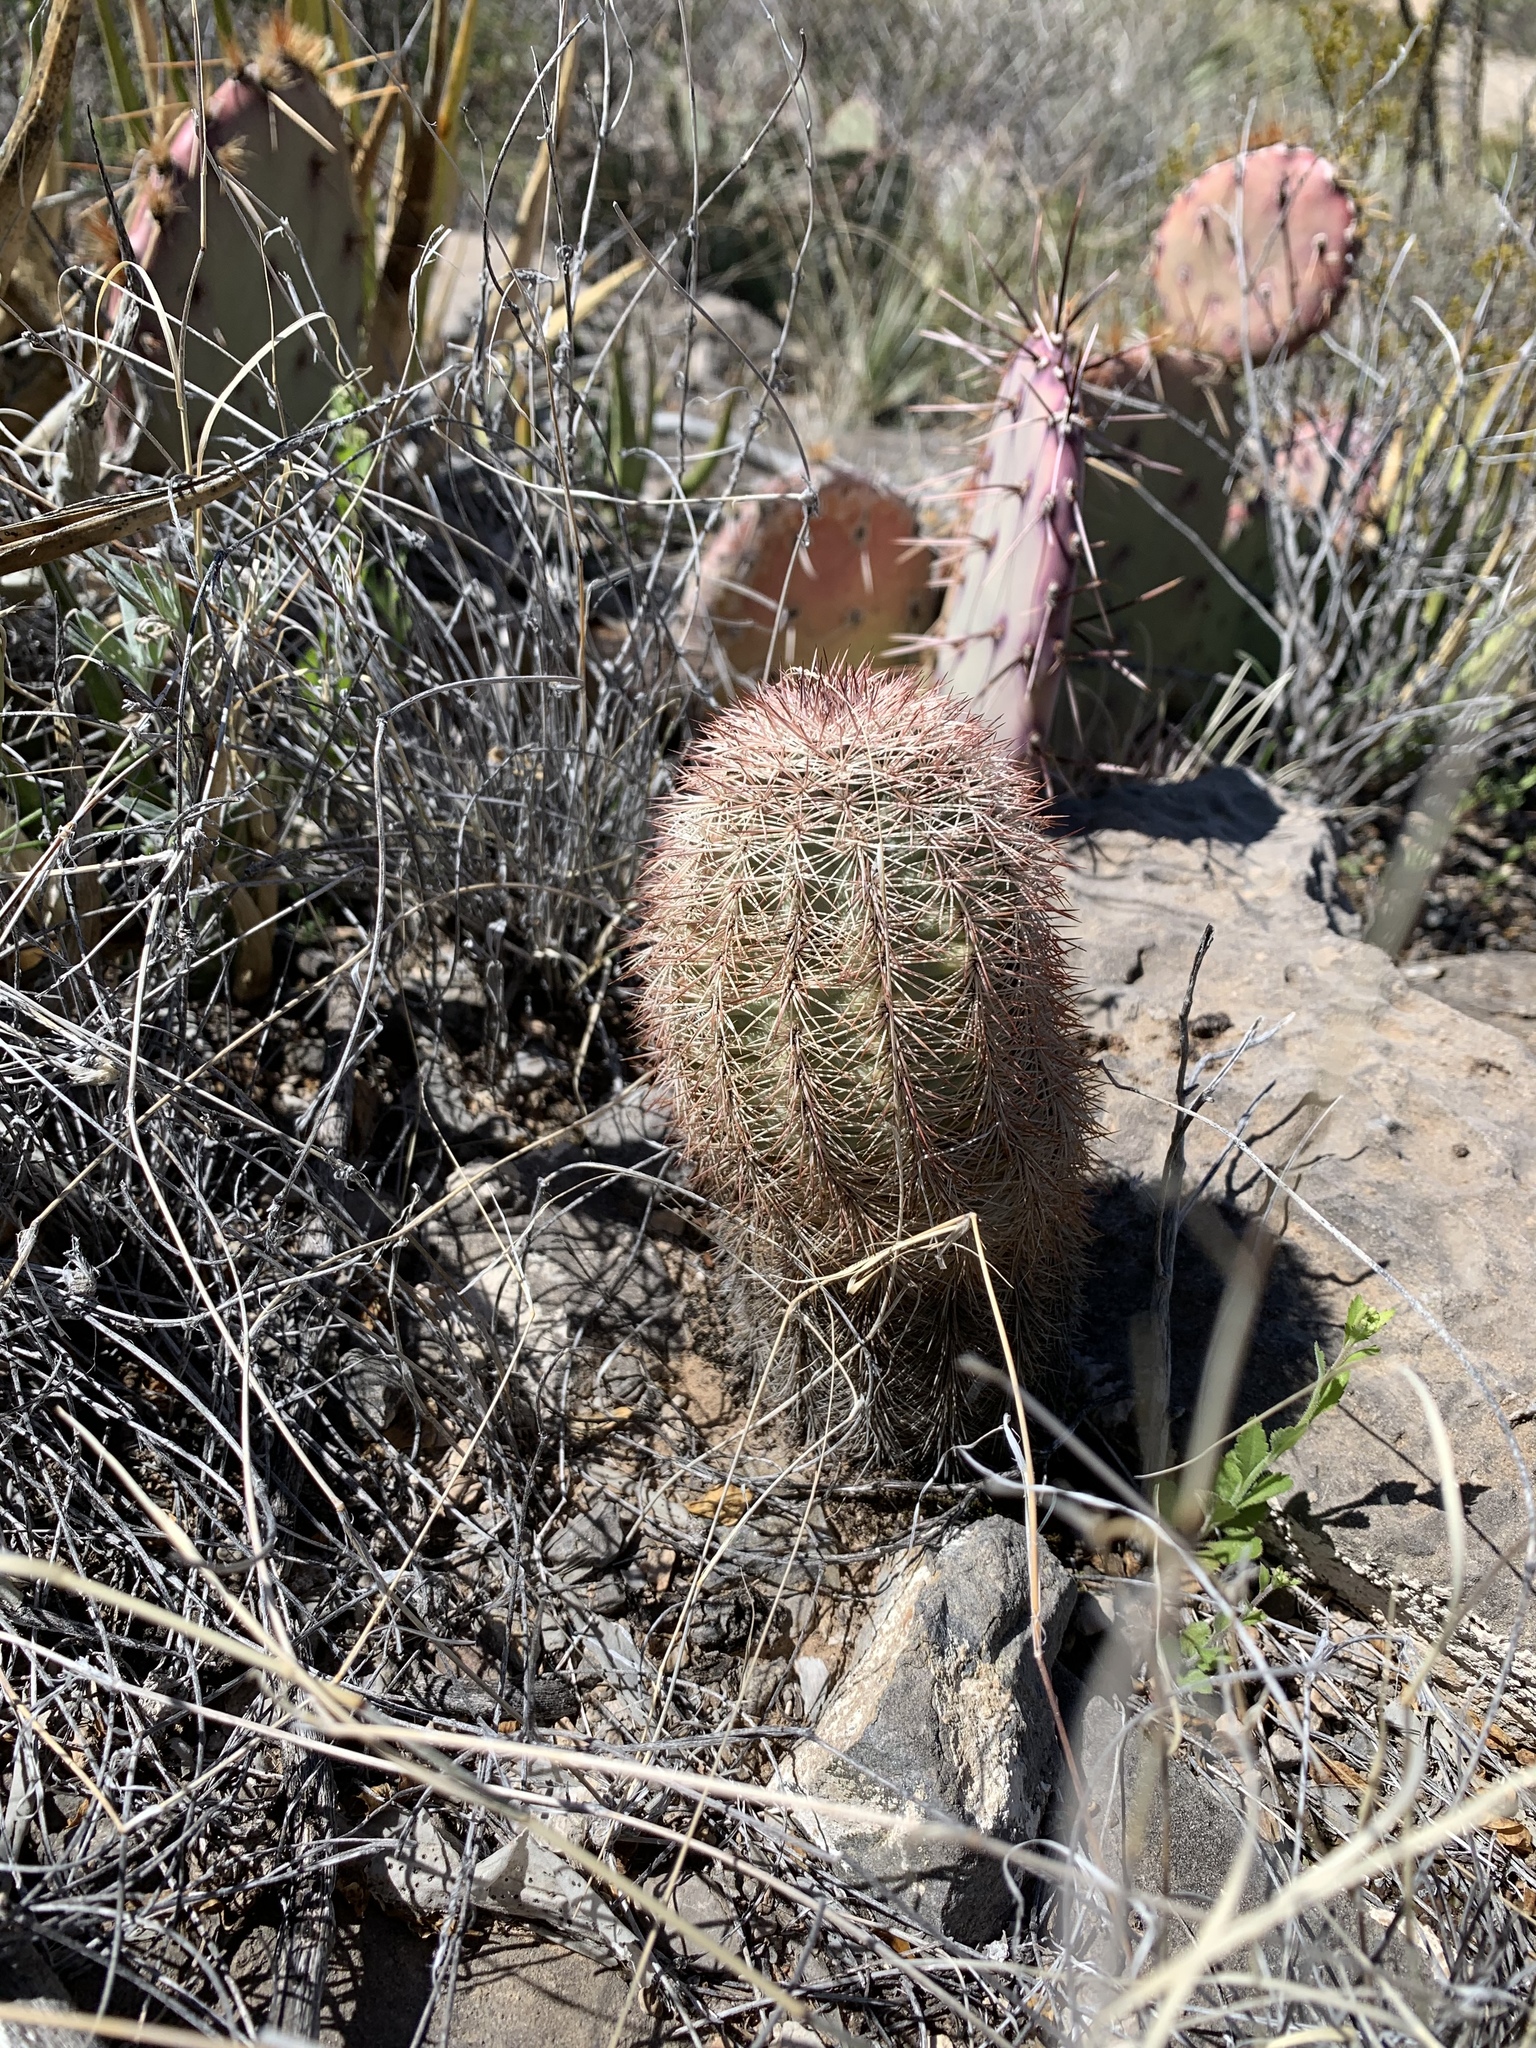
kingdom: Plantae
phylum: Tracheophyta
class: Magnoliopsida
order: Caryophyllales
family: Cactaceae
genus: Echinocereus
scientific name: Echinocereus dasyacanthus
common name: Spiny hedgehog cactus
